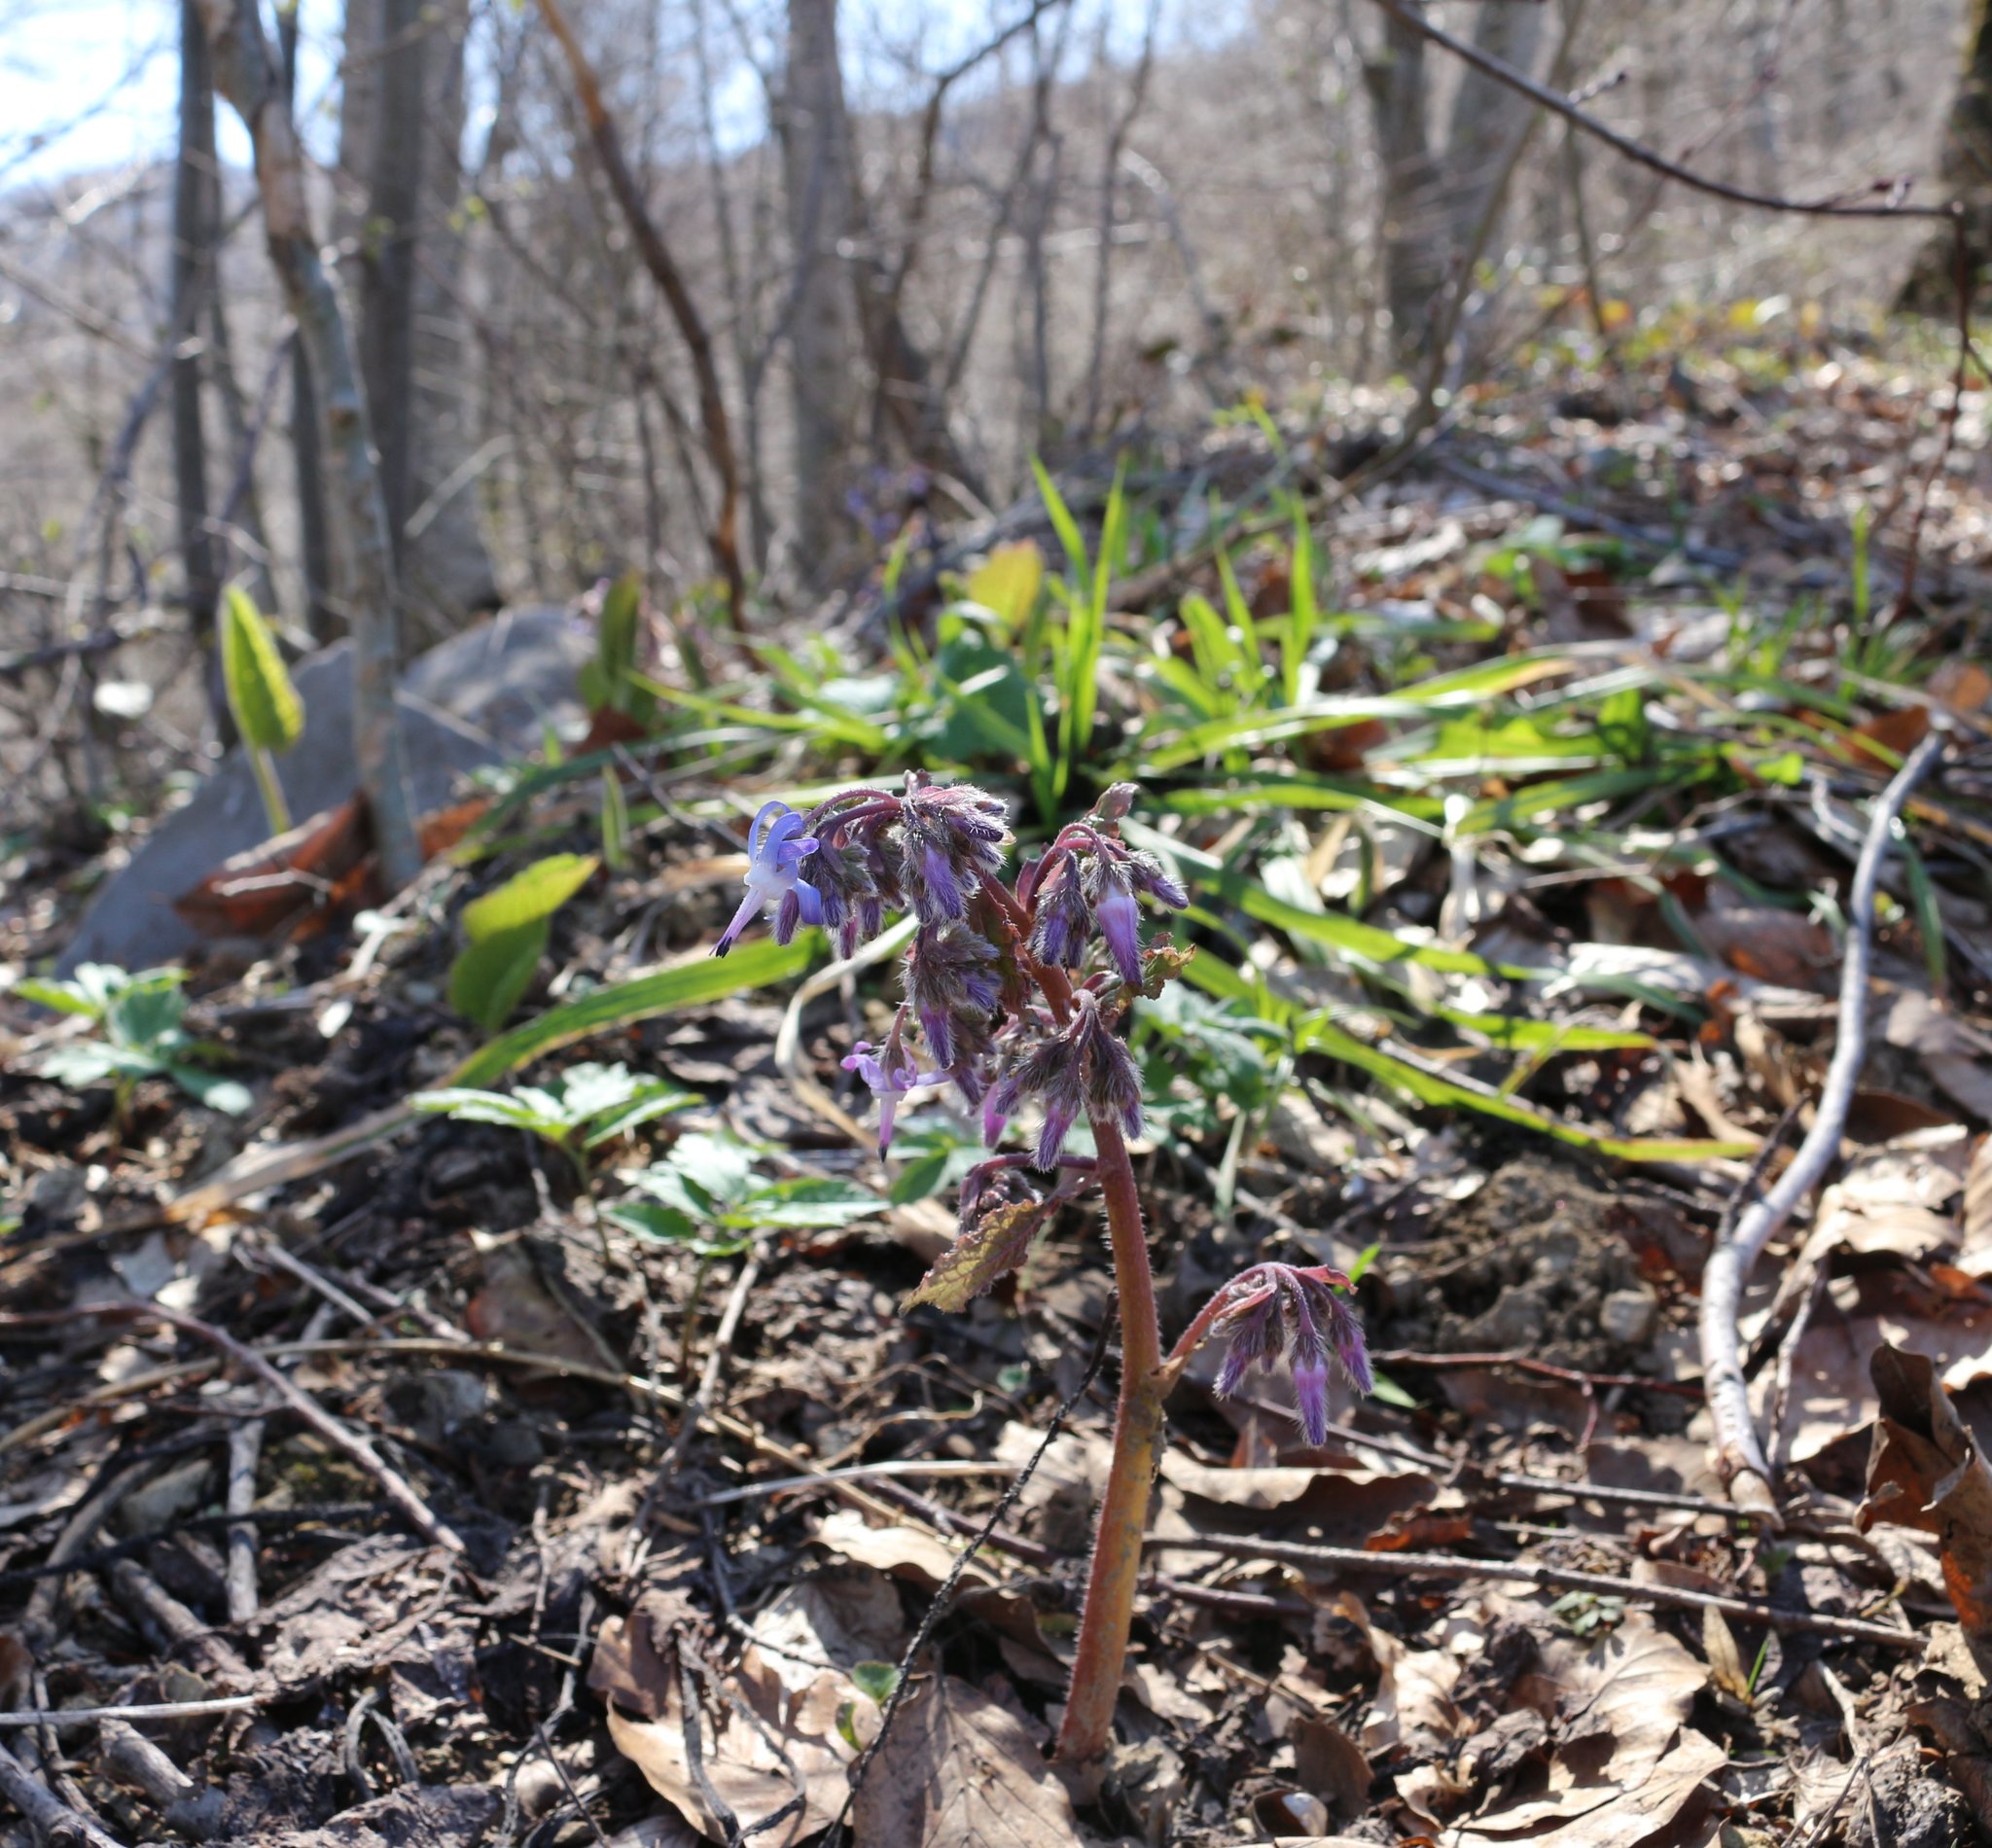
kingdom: Plantae
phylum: Tracheophyta
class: Magnoliopsida
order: Boraginales
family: Boraginaceae
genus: Trachystemon
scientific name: Trachystemon orientale
